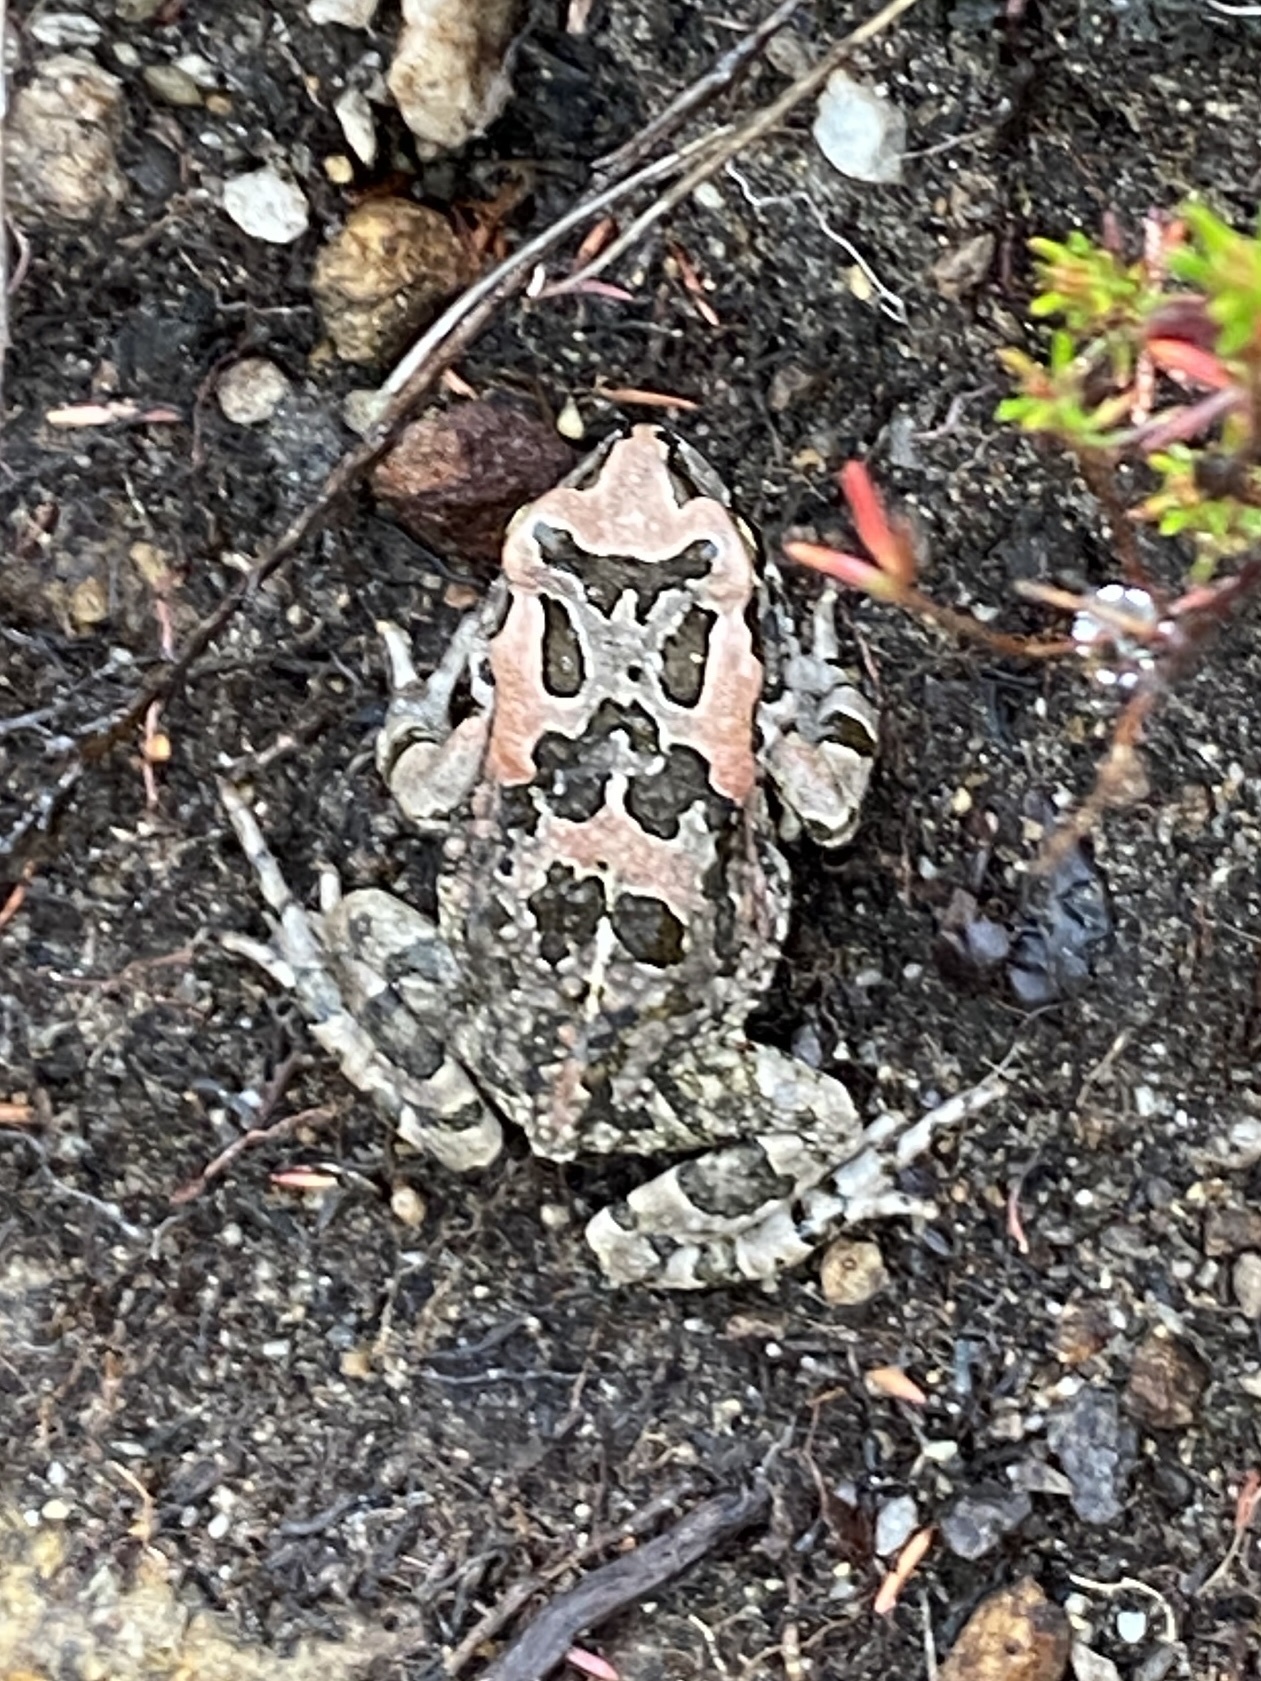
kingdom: Animalia
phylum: Chordata
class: Amphibia
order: Anura
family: Bufonidae
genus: Sclerophrys
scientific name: Sclerophrys capensis
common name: Ranger’s toad
